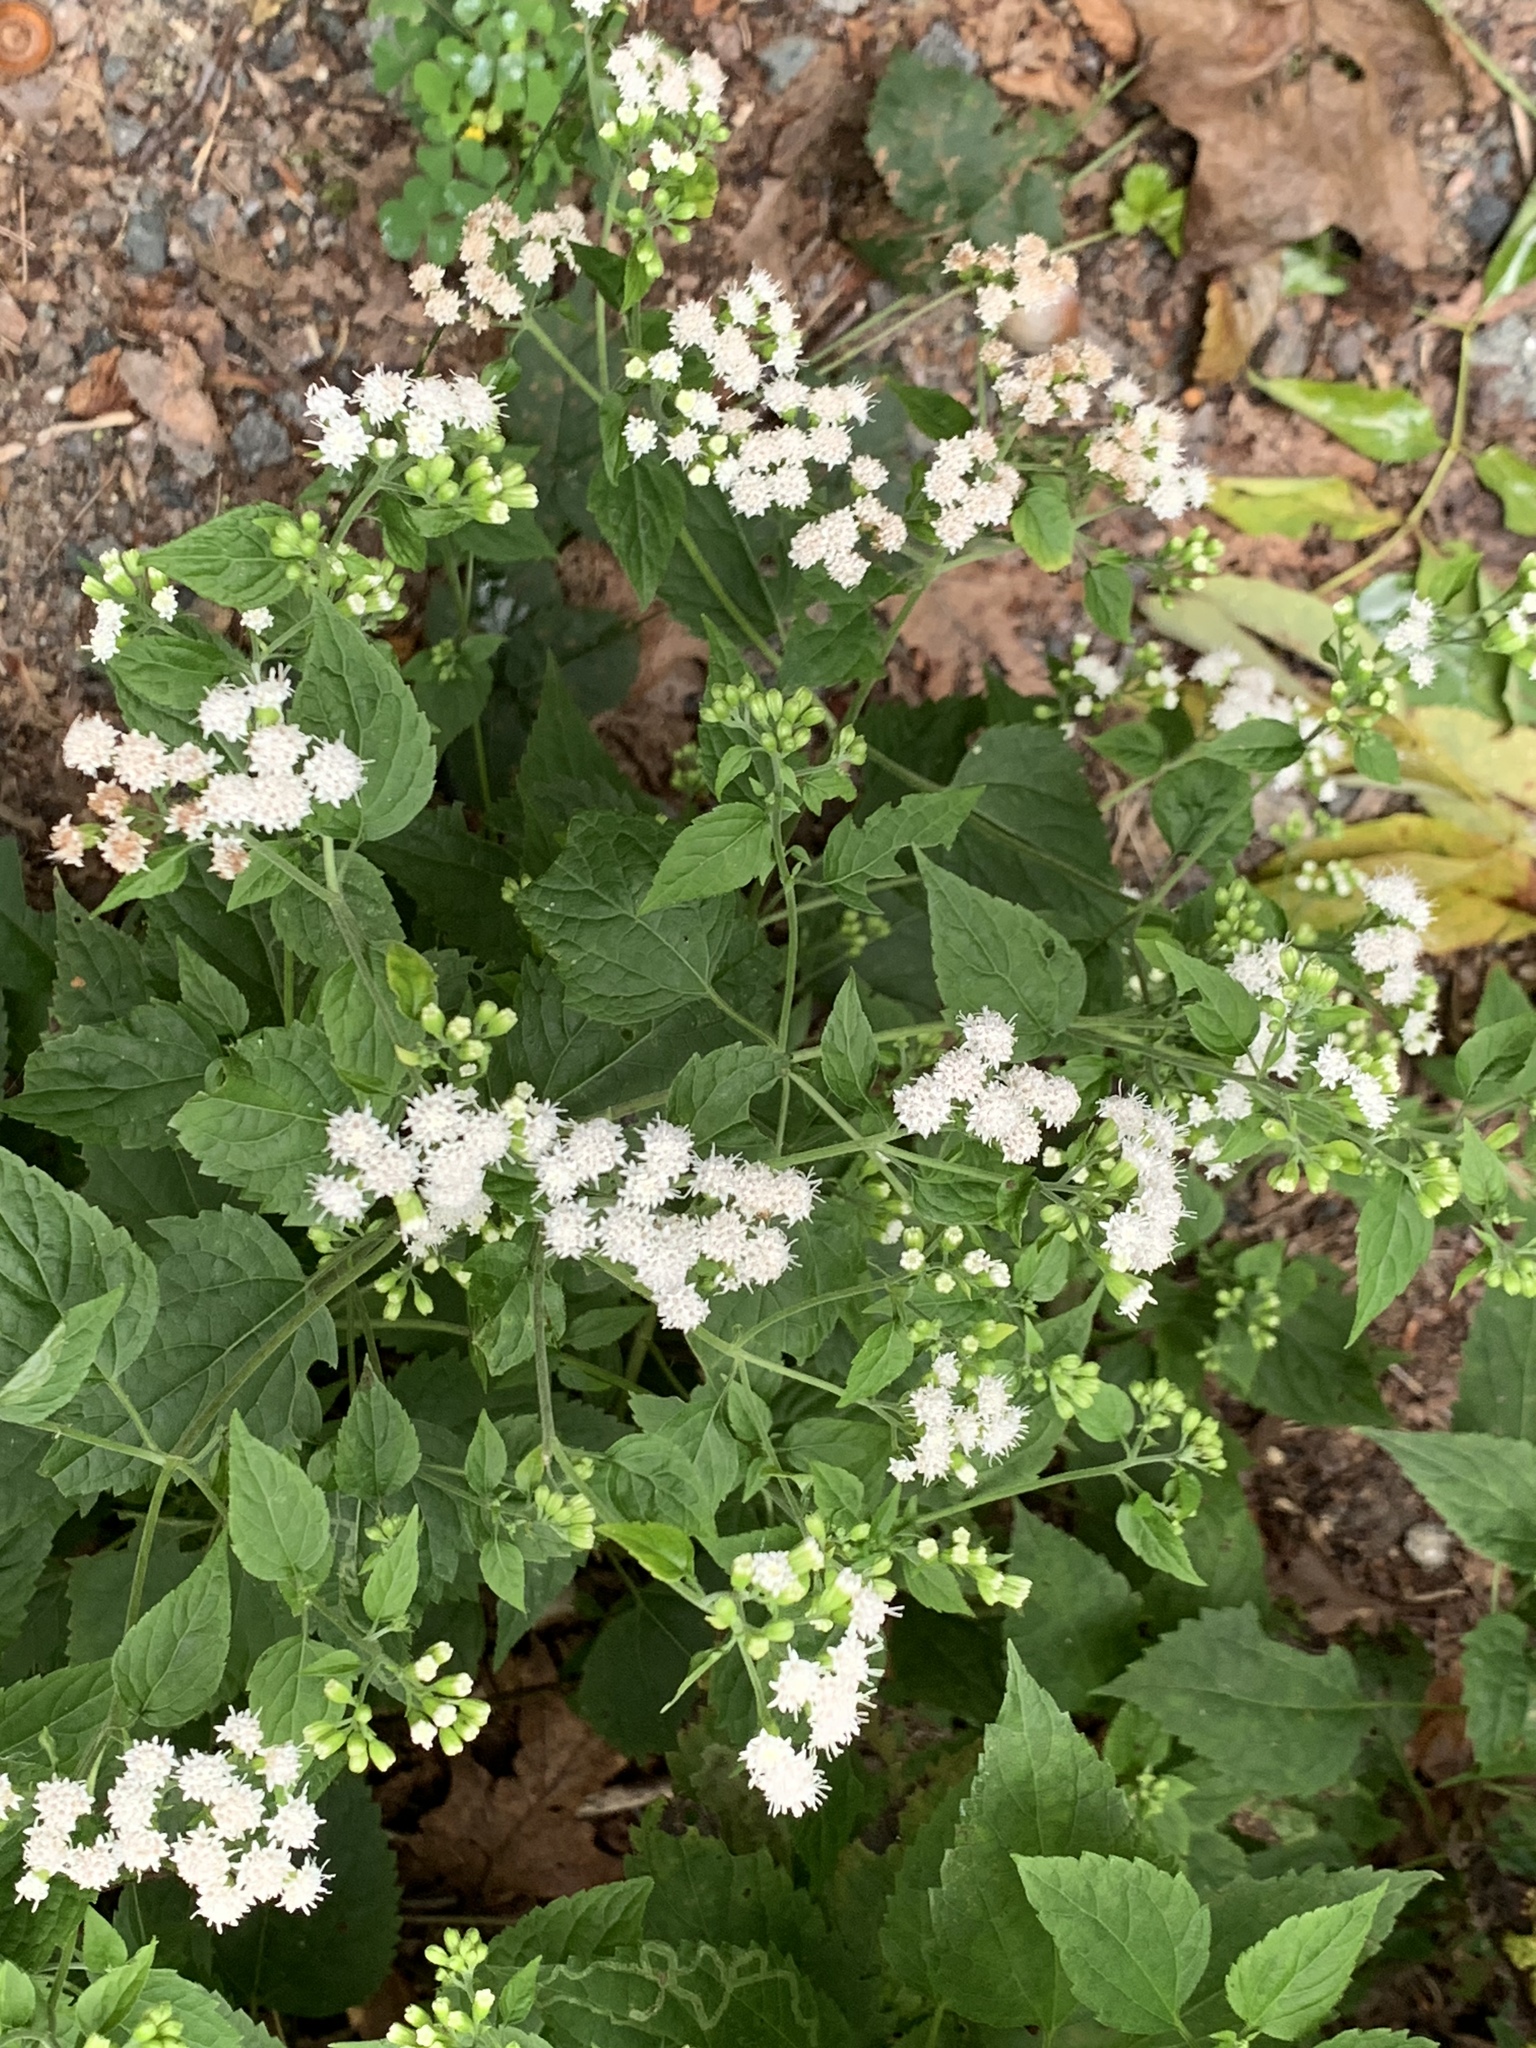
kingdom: Plantae
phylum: Tracheophyta
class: Magnoliopsida
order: Asterales
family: Asteraceae
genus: Ageratina
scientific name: Ageratina altissima
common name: White snakeroot
